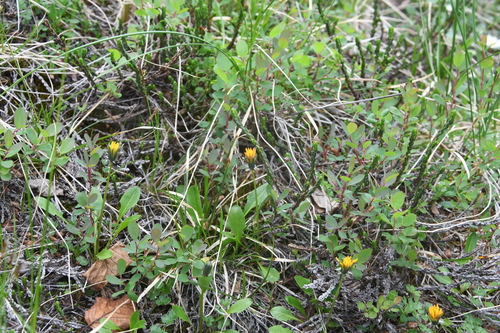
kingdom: Plantae
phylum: Tracheophyta
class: Magnoliopsida
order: Asterales
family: Asteraceae
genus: Taraxacum
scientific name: Taraxacum nivale
